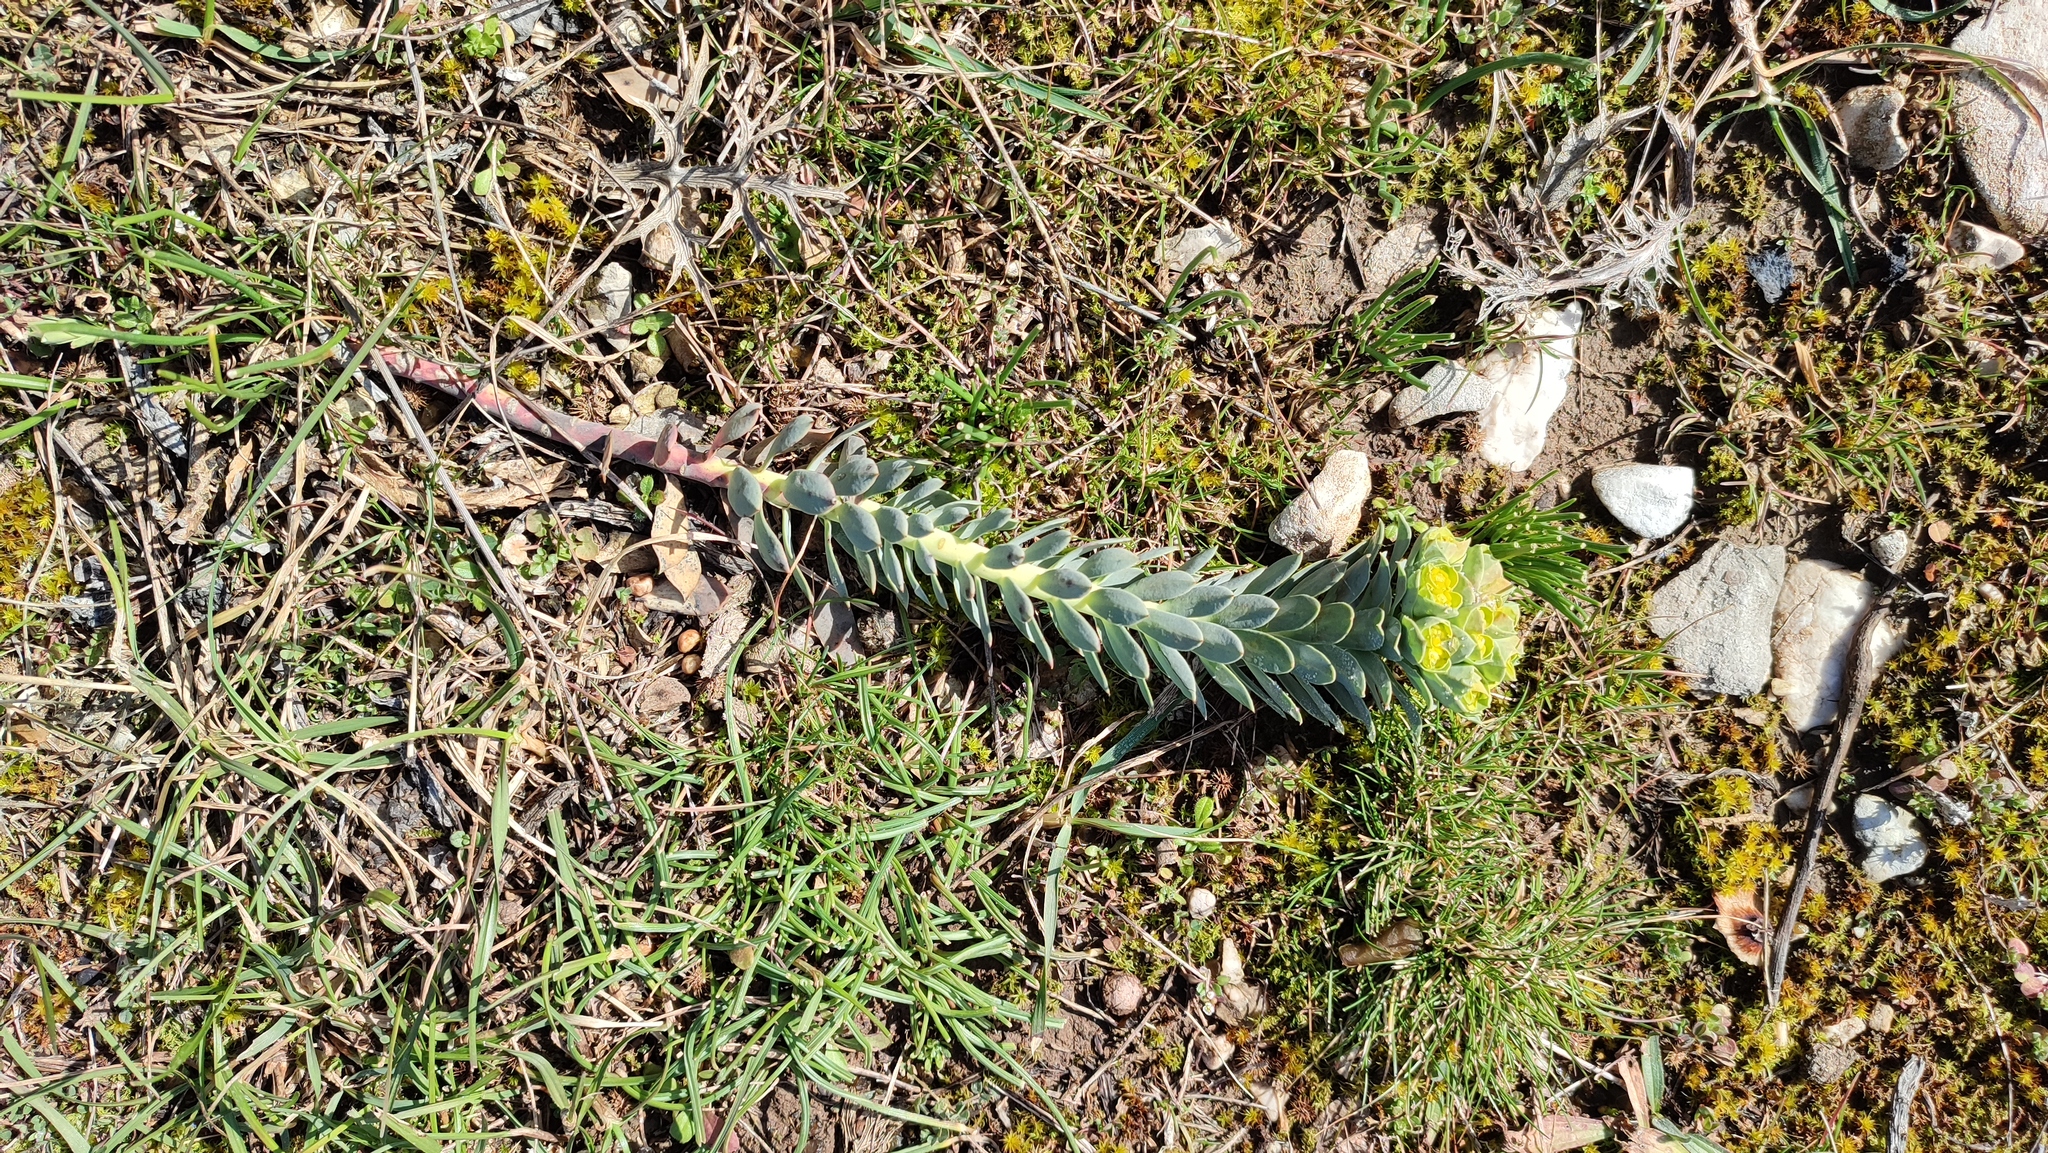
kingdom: Plantae
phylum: Tracheophyta
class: Magnoliopsida
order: Malpighiales
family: Euphorbiaceae
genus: Euphorbia
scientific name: Euphorbia myrsinites
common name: Myrtle spurge
